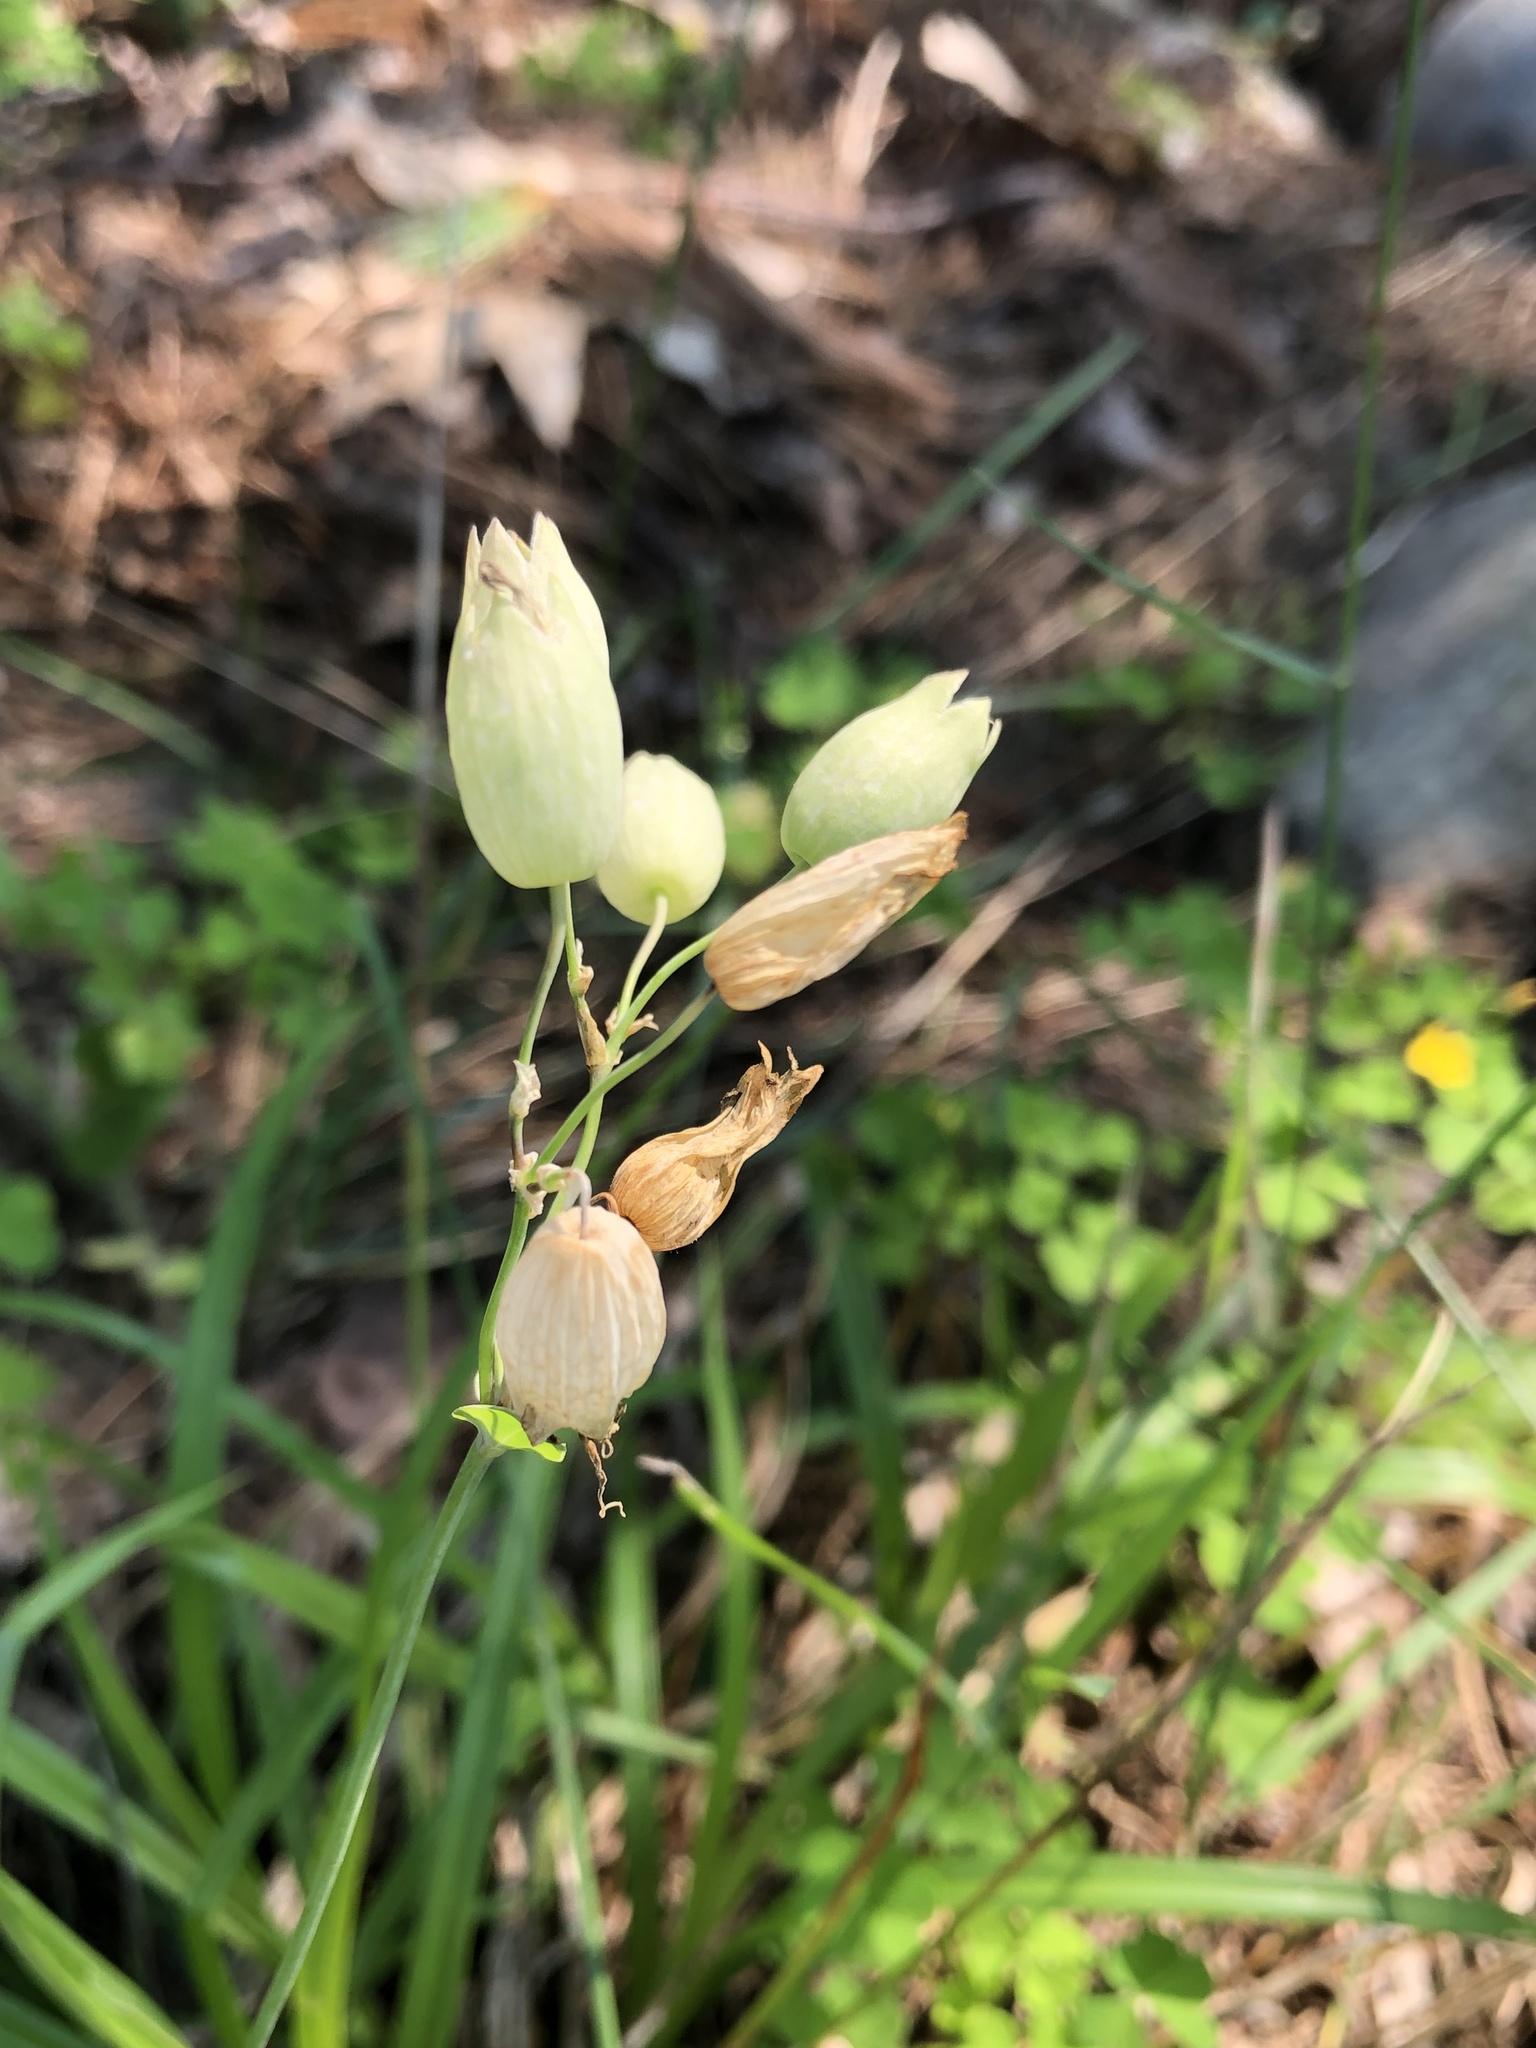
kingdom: Plantae
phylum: Tracheophyta
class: Magnoliopsida
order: Caryophyllales
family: Caryophyllaceae
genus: Silene
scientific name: Silene vulgaris
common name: Bladder campion
